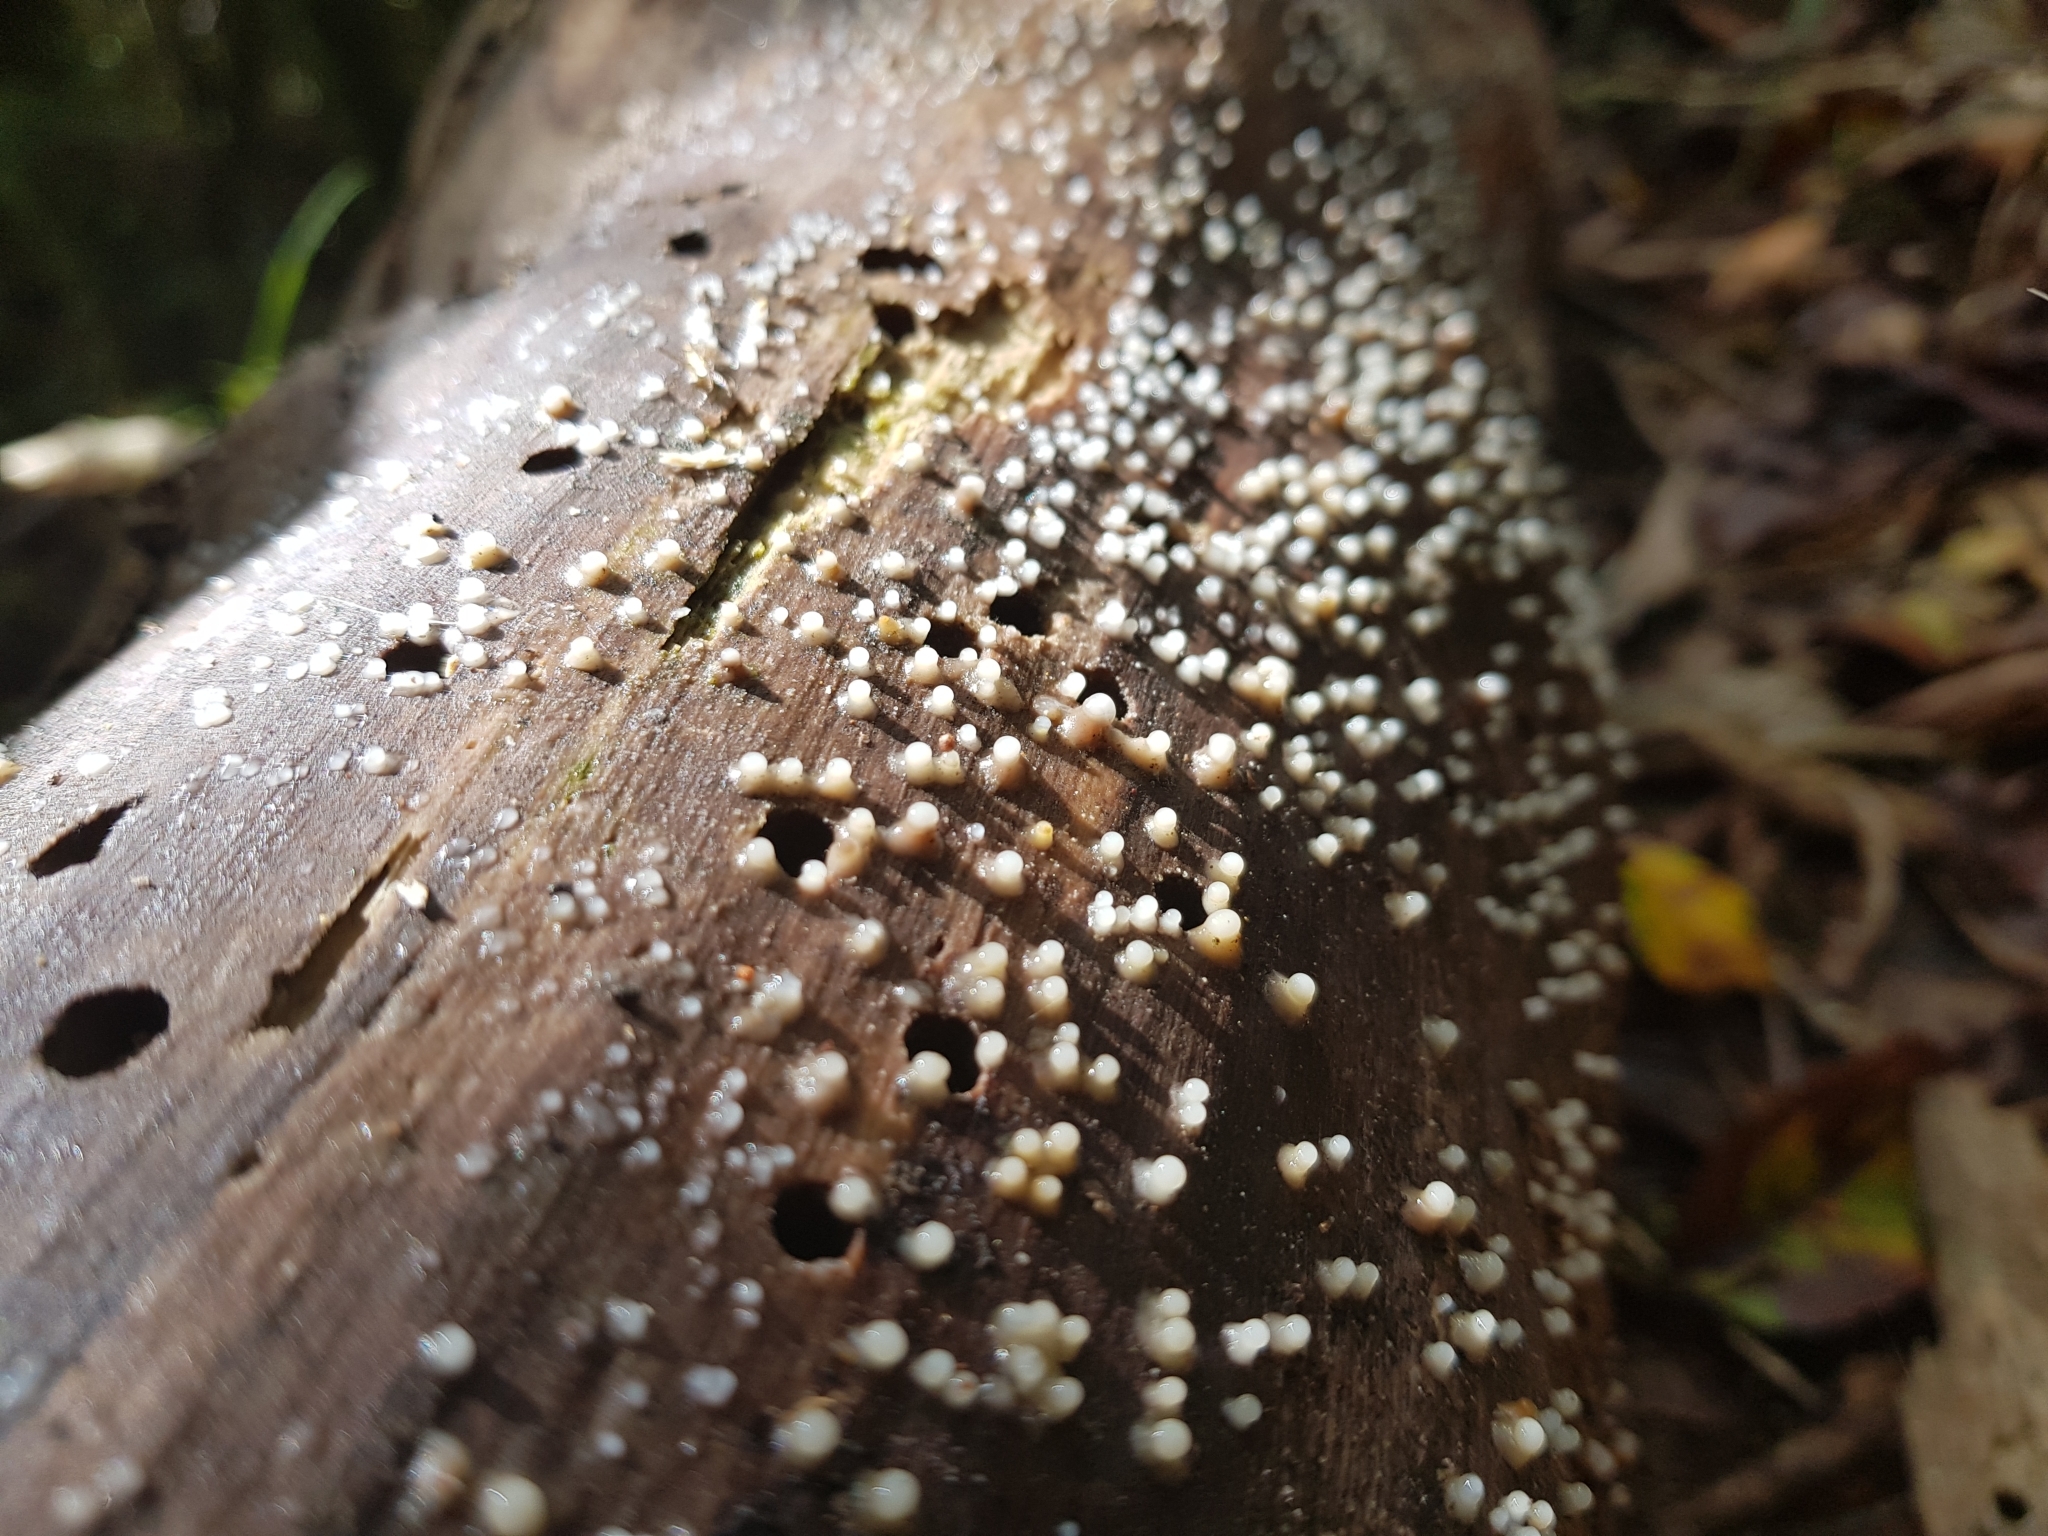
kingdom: Fungi
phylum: Basidiomycota
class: Atractiellomycetes
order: Atractiellales
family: Phleogenaceae
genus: Helicogloea
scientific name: Helicogloea compressa
